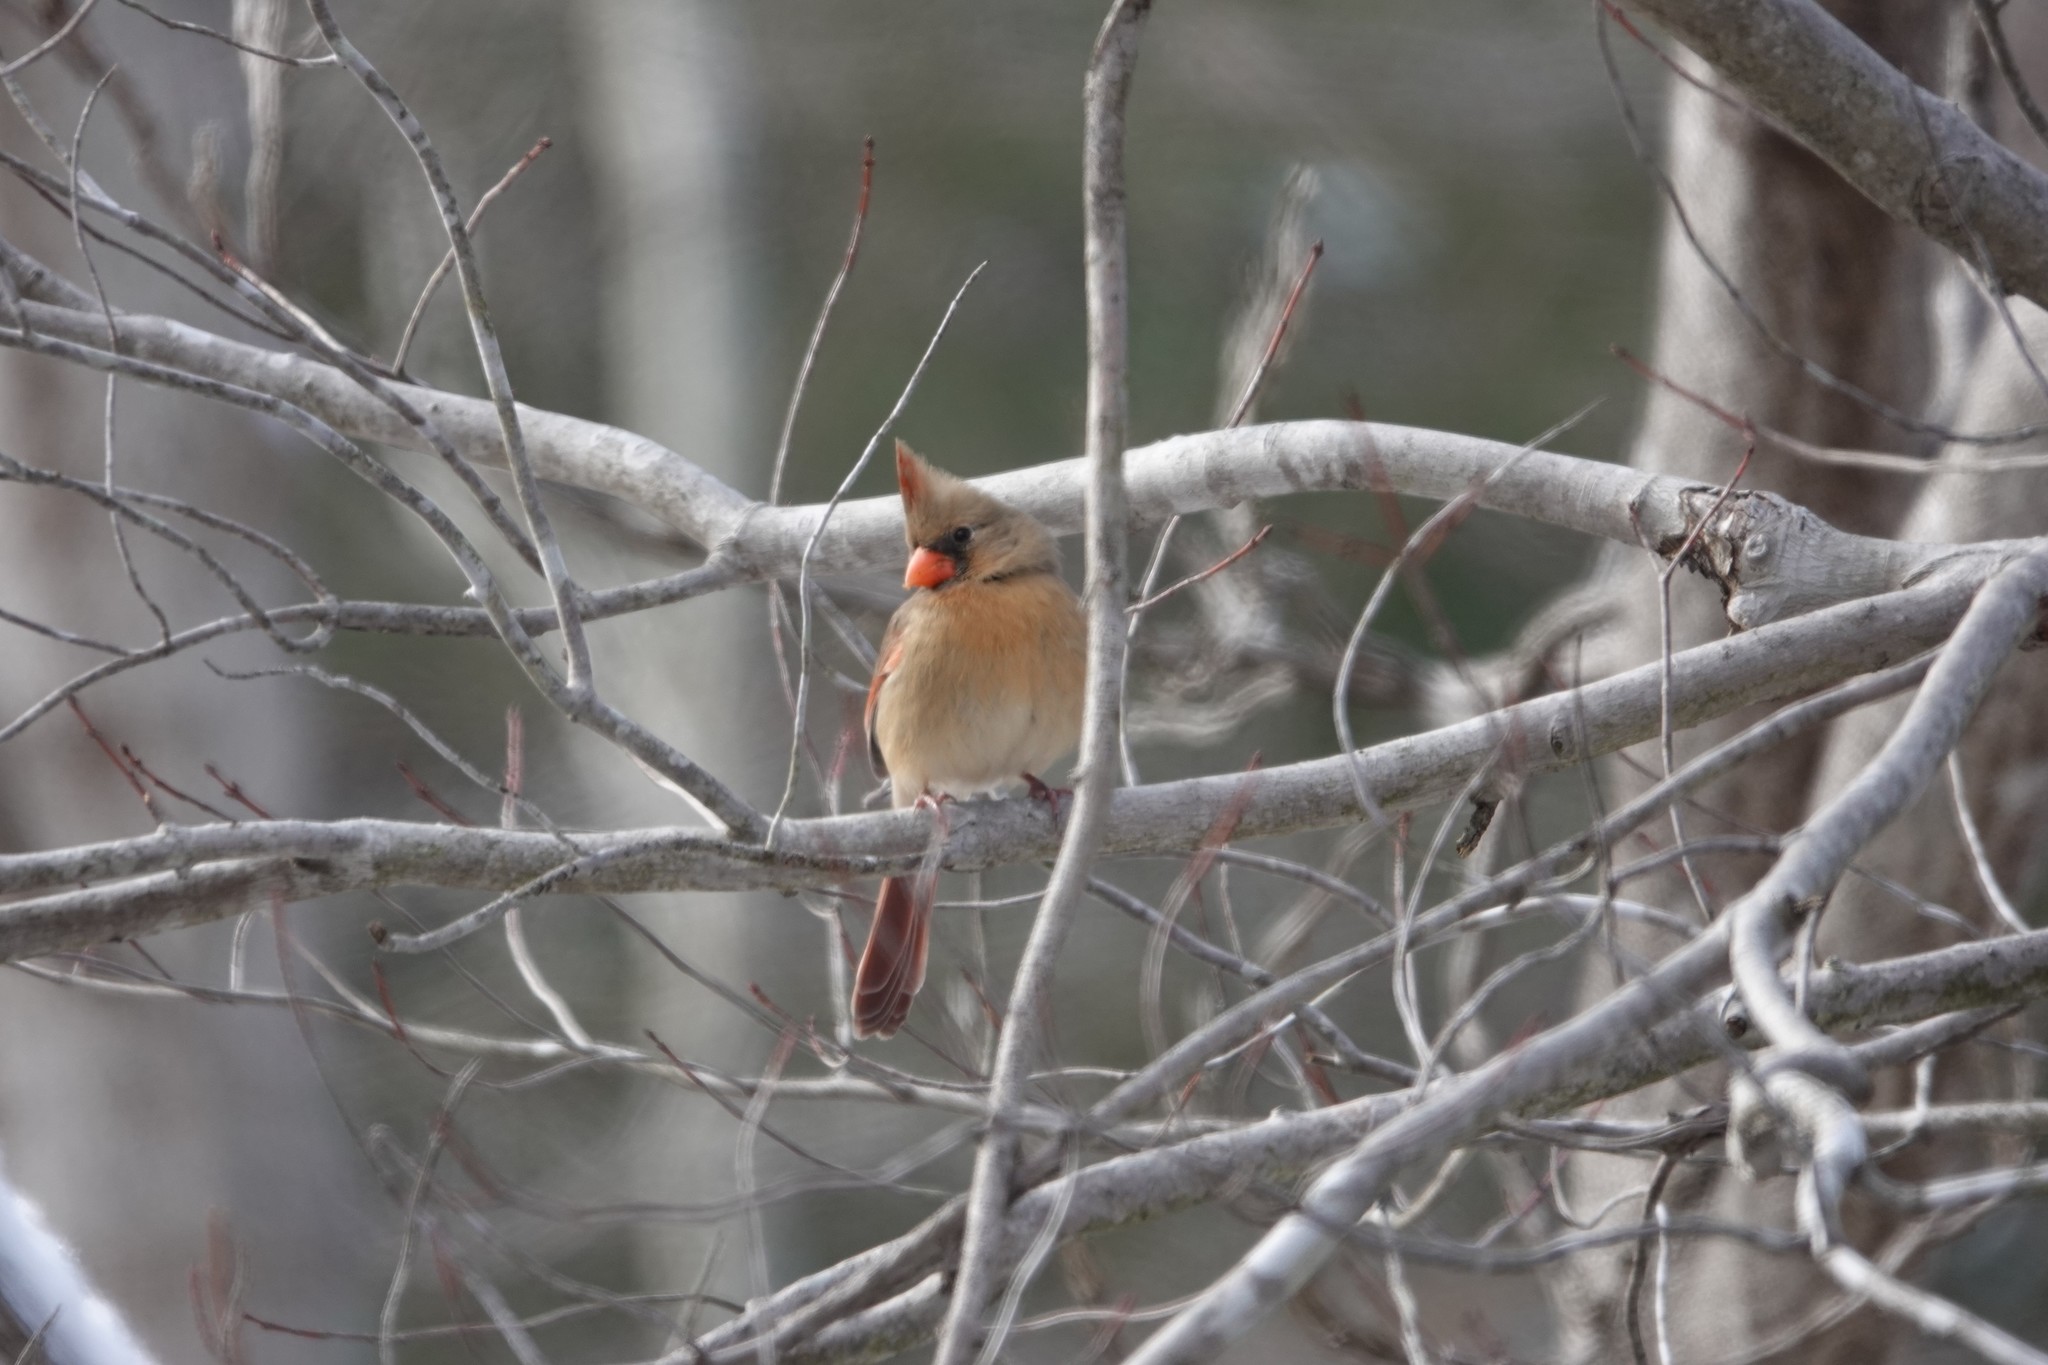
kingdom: Animalia
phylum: Chordata
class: Aves
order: Passeriformes
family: Cardinalidae
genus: Cardinalis
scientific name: Cardinalis cardinalis
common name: Northern cardinal
